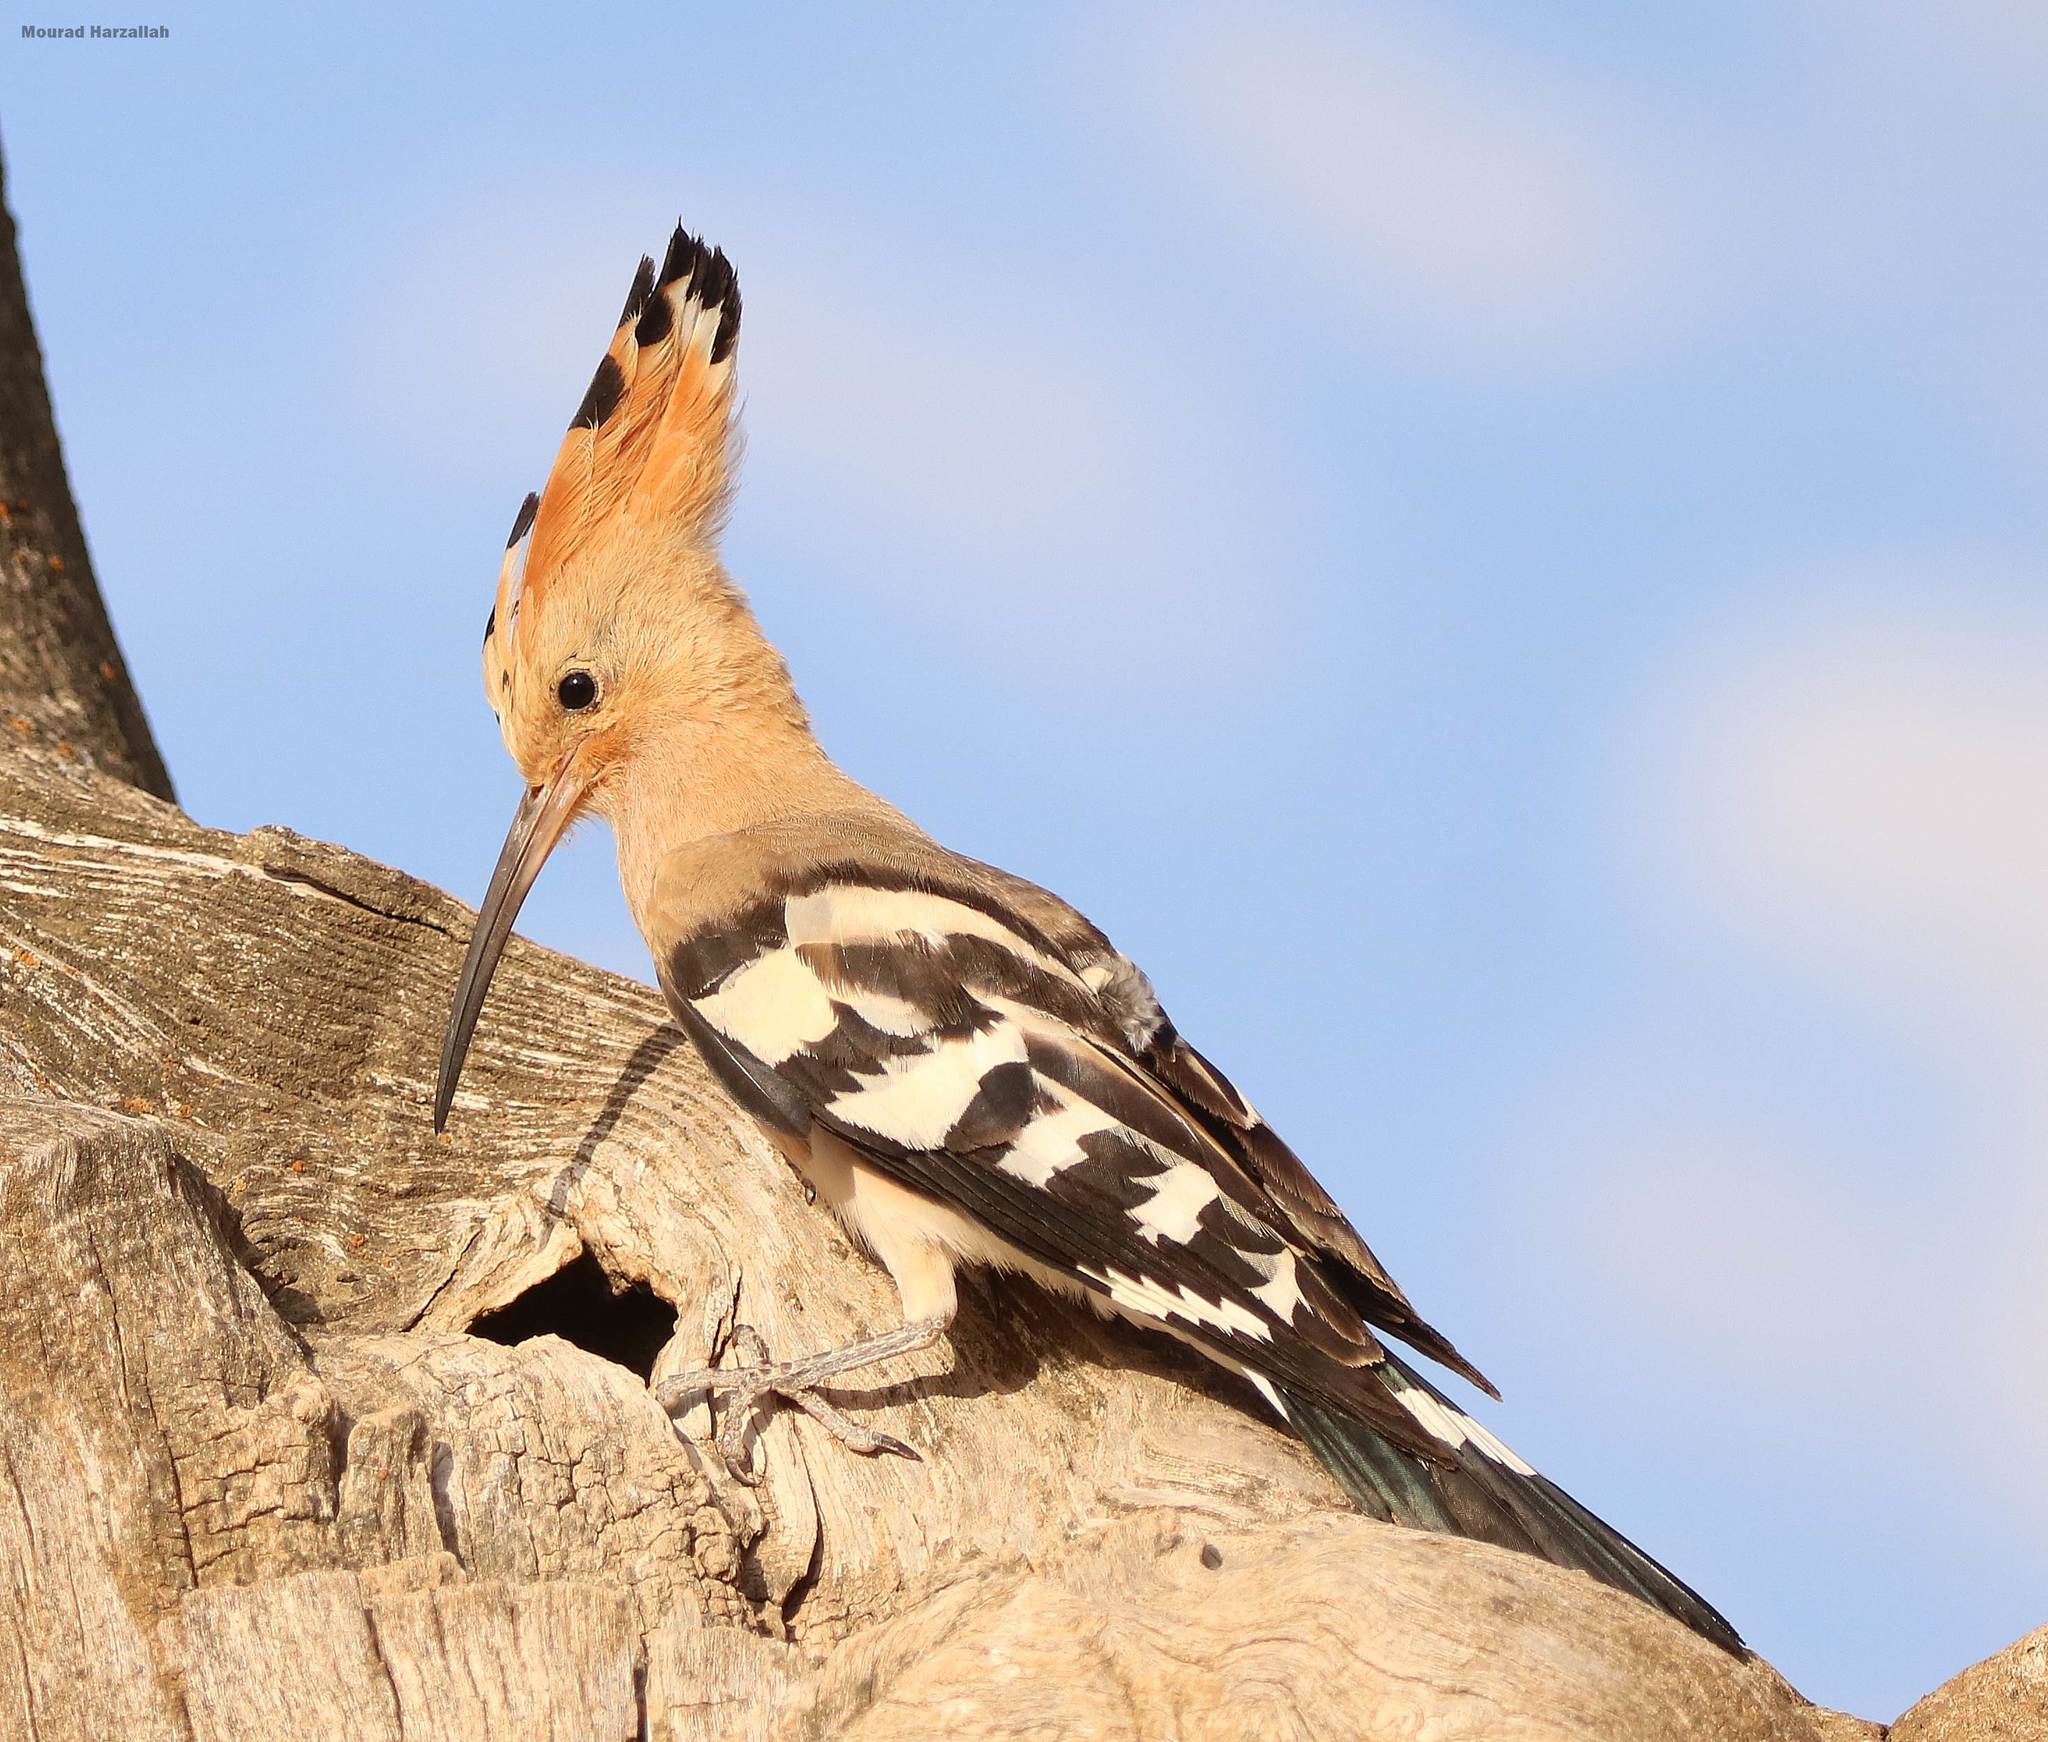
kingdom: Animalia
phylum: Chordata
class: Aves
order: Bucerotiformes
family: Upupidae
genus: Upupa
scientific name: Upupa epops
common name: Eurasian hoopoe
